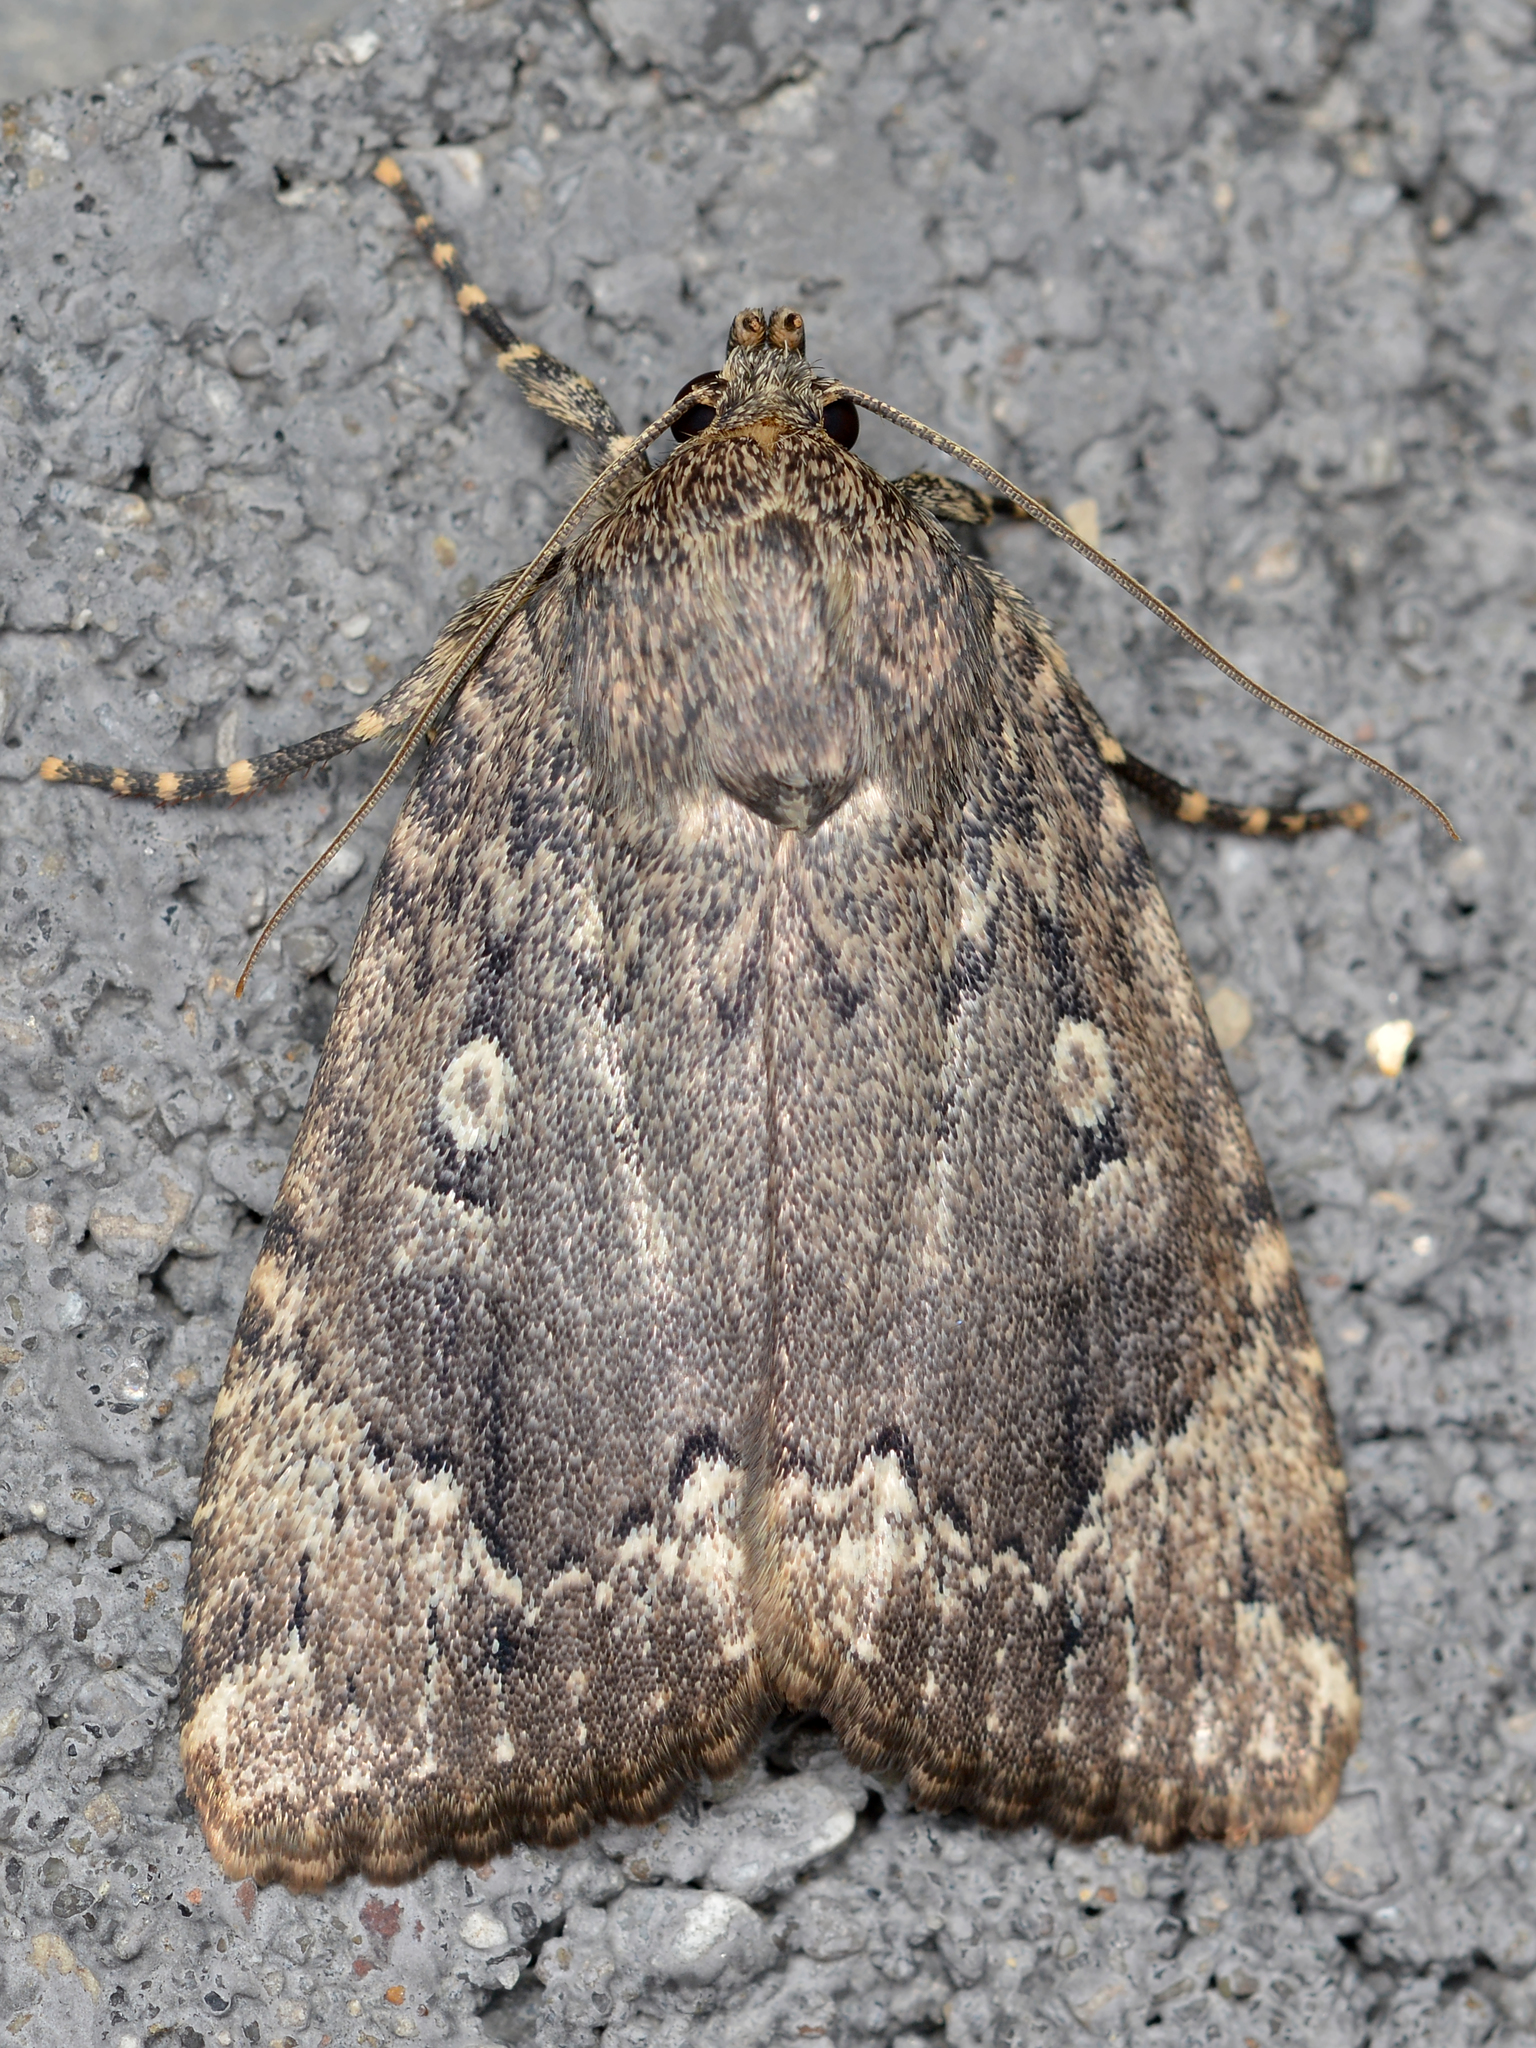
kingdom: Animalia
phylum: Arthropoda
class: Insecta
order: Lepidoptera
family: Noctuidae
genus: Amphipyra
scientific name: Amphipyra pyramidoides
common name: American copper underwing
